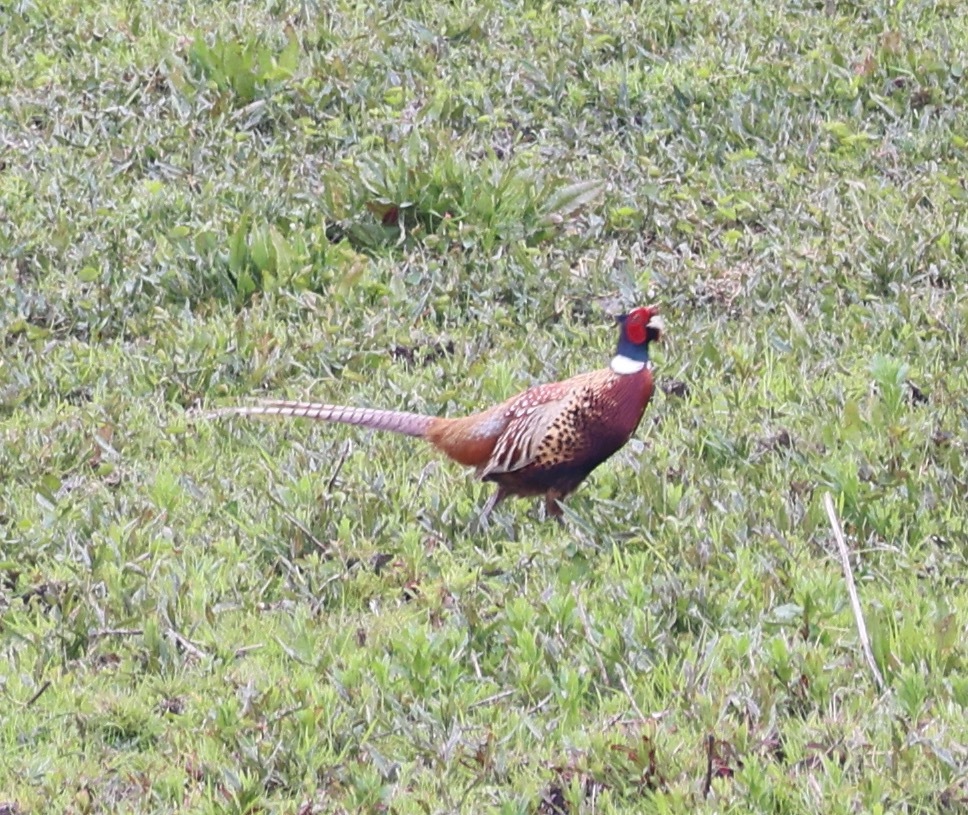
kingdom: Animalia
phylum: Chordata
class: Aves
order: Galliformes
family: Phasianidae
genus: Phasianus
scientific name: Phasianus colchicus
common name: Common pheasant
